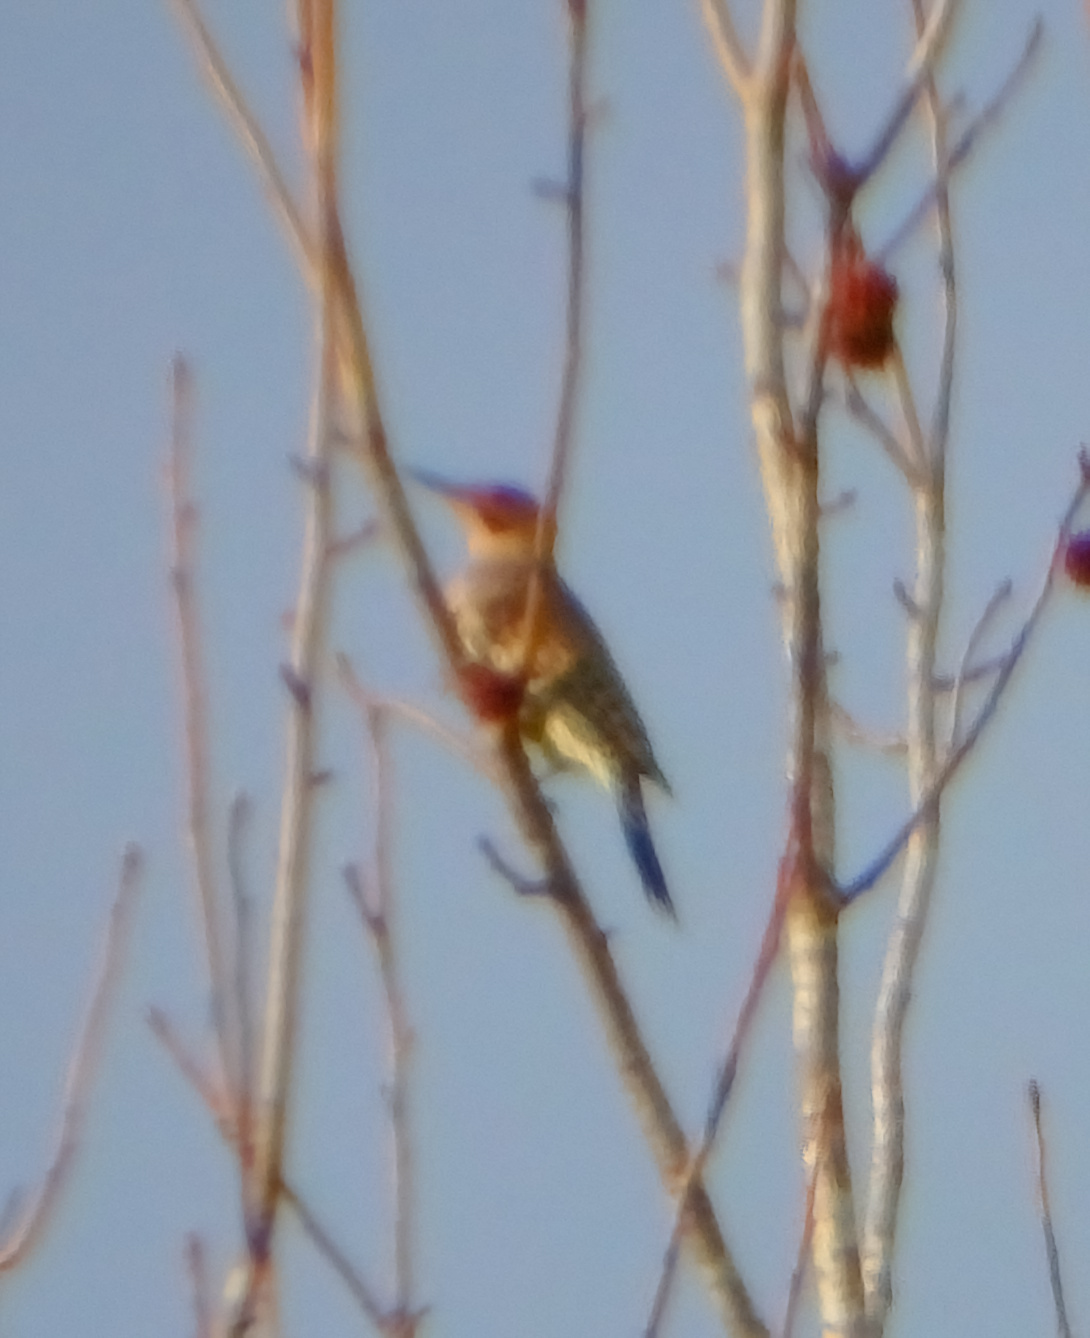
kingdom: Animalia
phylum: Chordata
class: Aves
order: Piciformes
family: Picidae
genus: Colaptes
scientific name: Colaptes auratus
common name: Northern flicker
